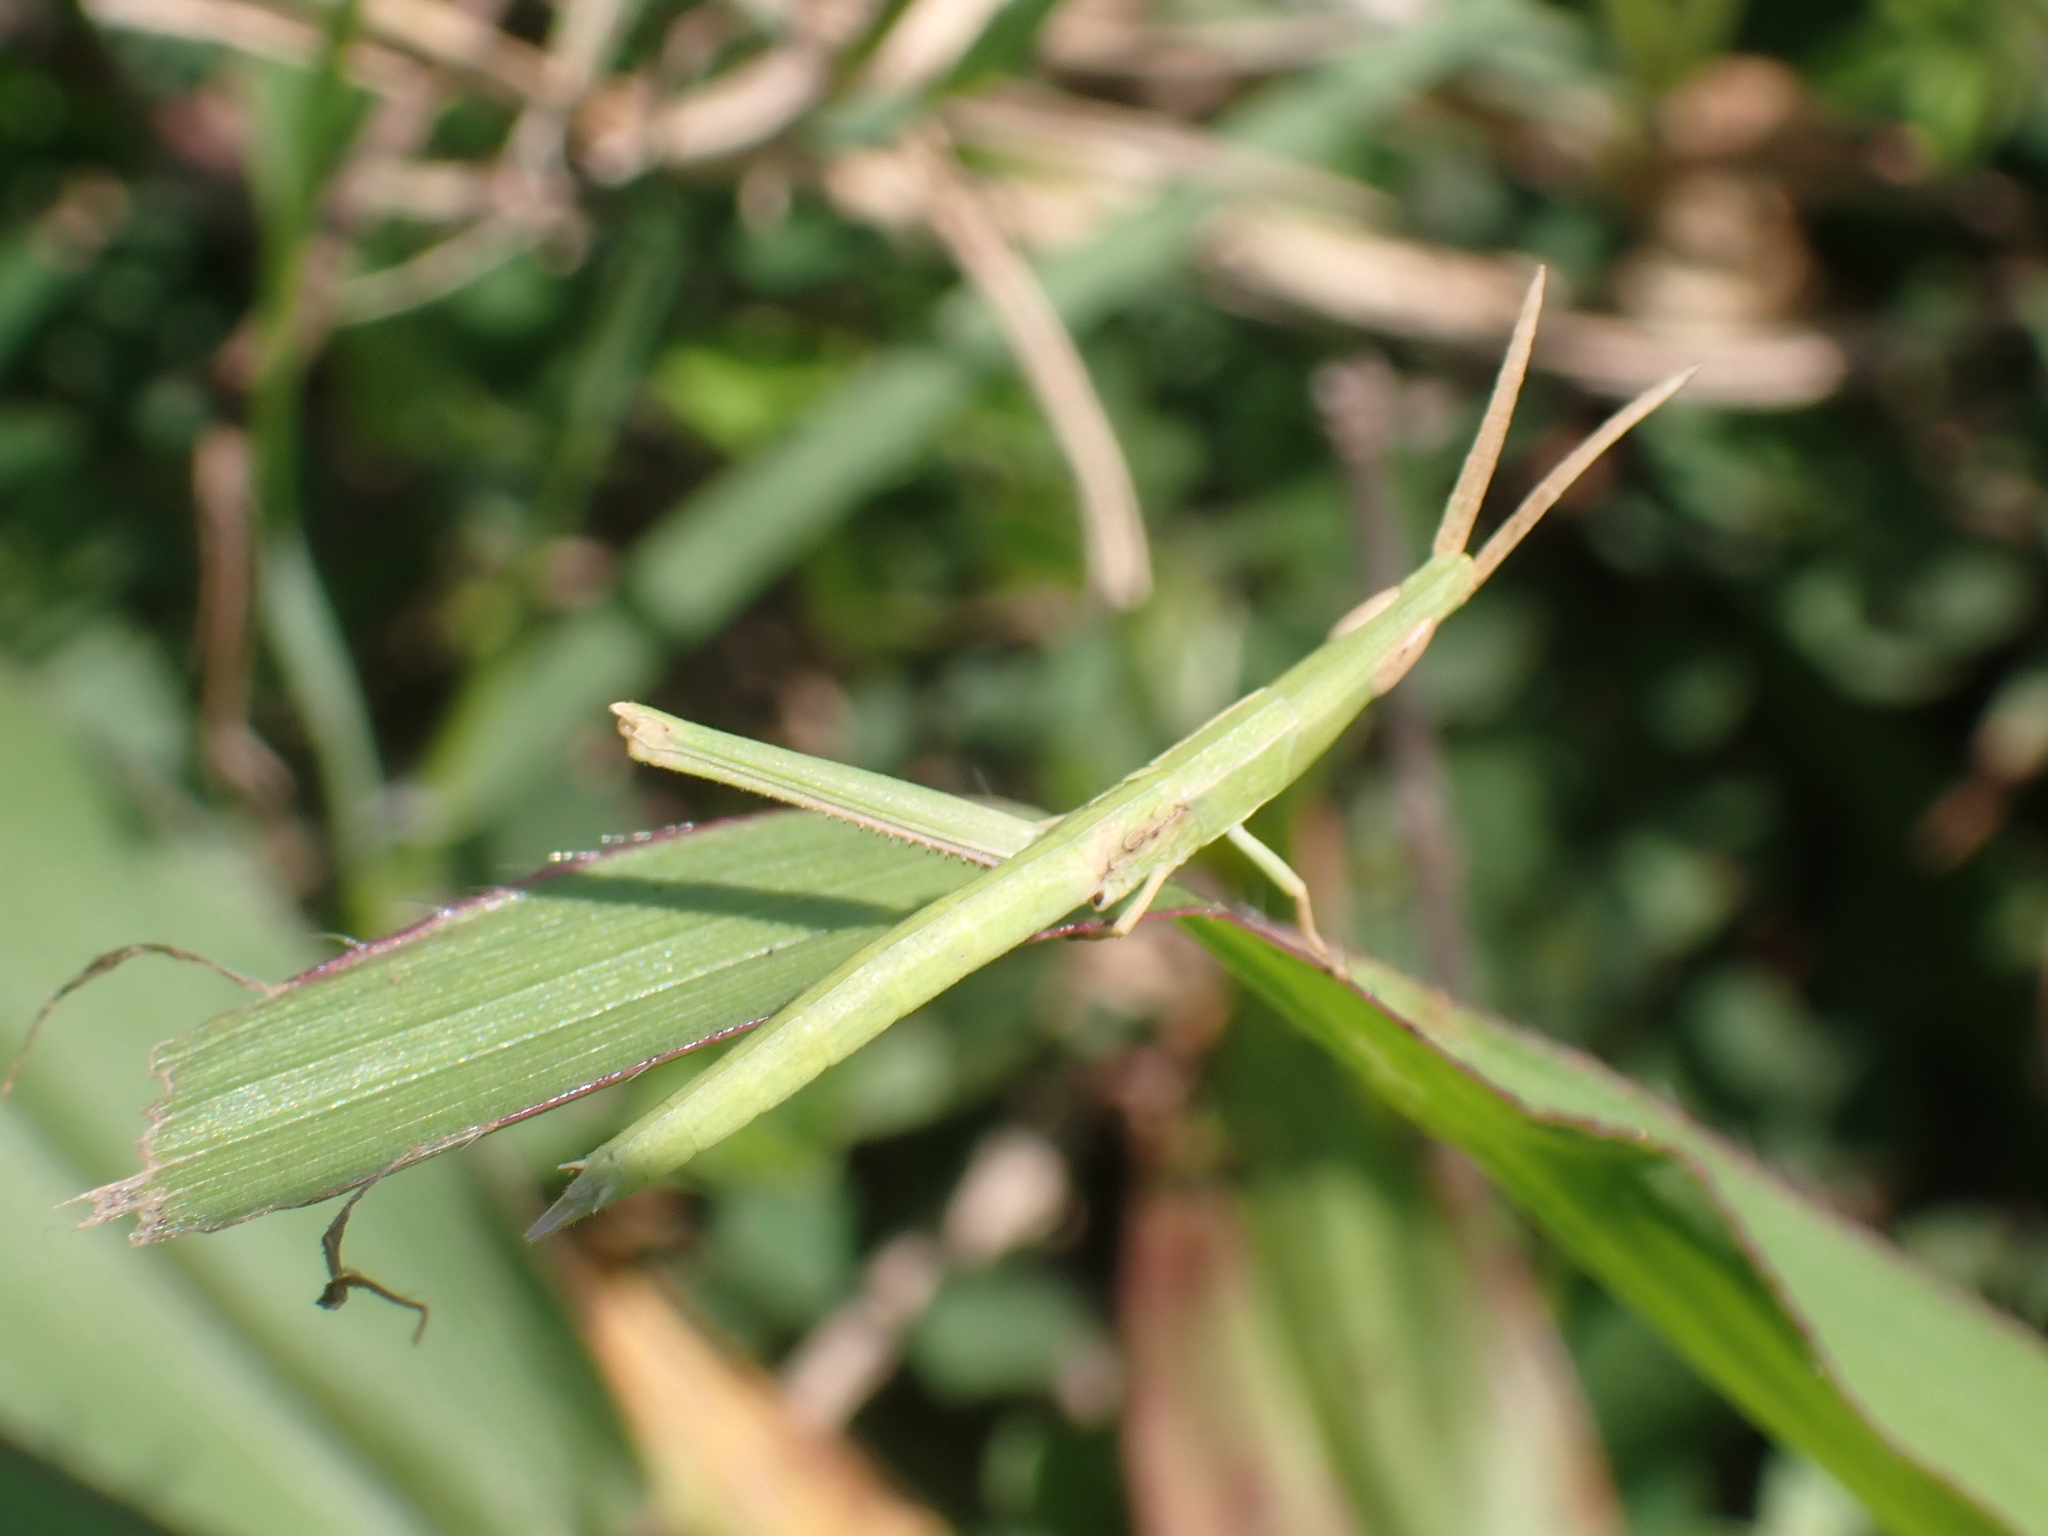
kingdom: Animalia
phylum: Arthropoda
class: Insecta
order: Orthoptera
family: Acrididae
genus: Achurum
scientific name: Achurum carinatum
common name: Long-headed toothpick grasshopper
